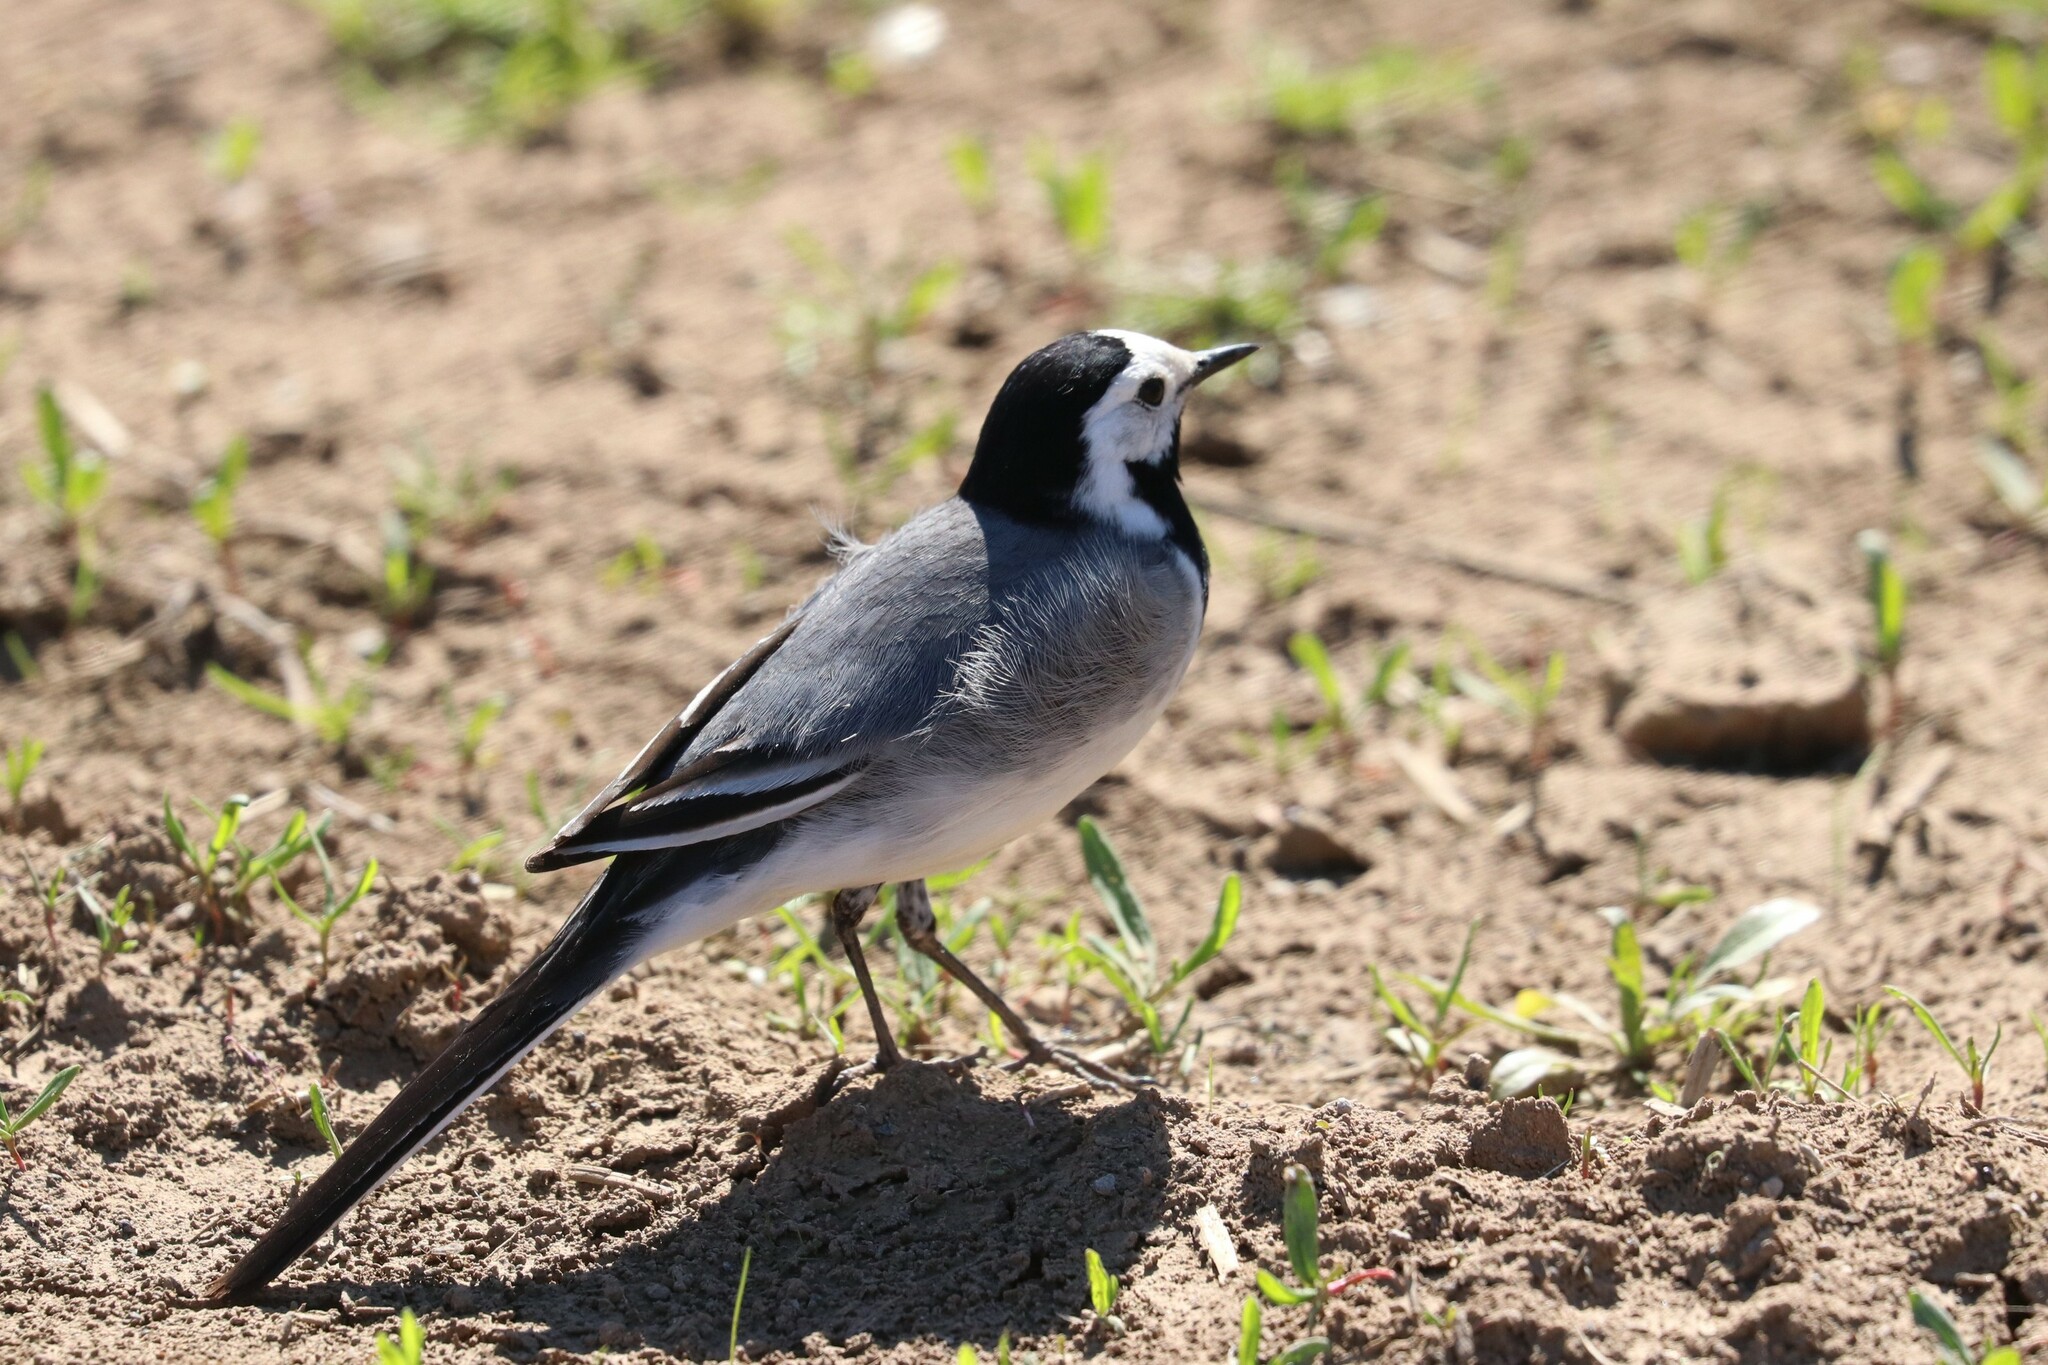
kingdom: Animalia
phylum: Chordata
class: Aves
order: Passeriformes
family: Motacillidae
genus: Motacilla
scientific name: Motacilla alba
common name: White wagtail
